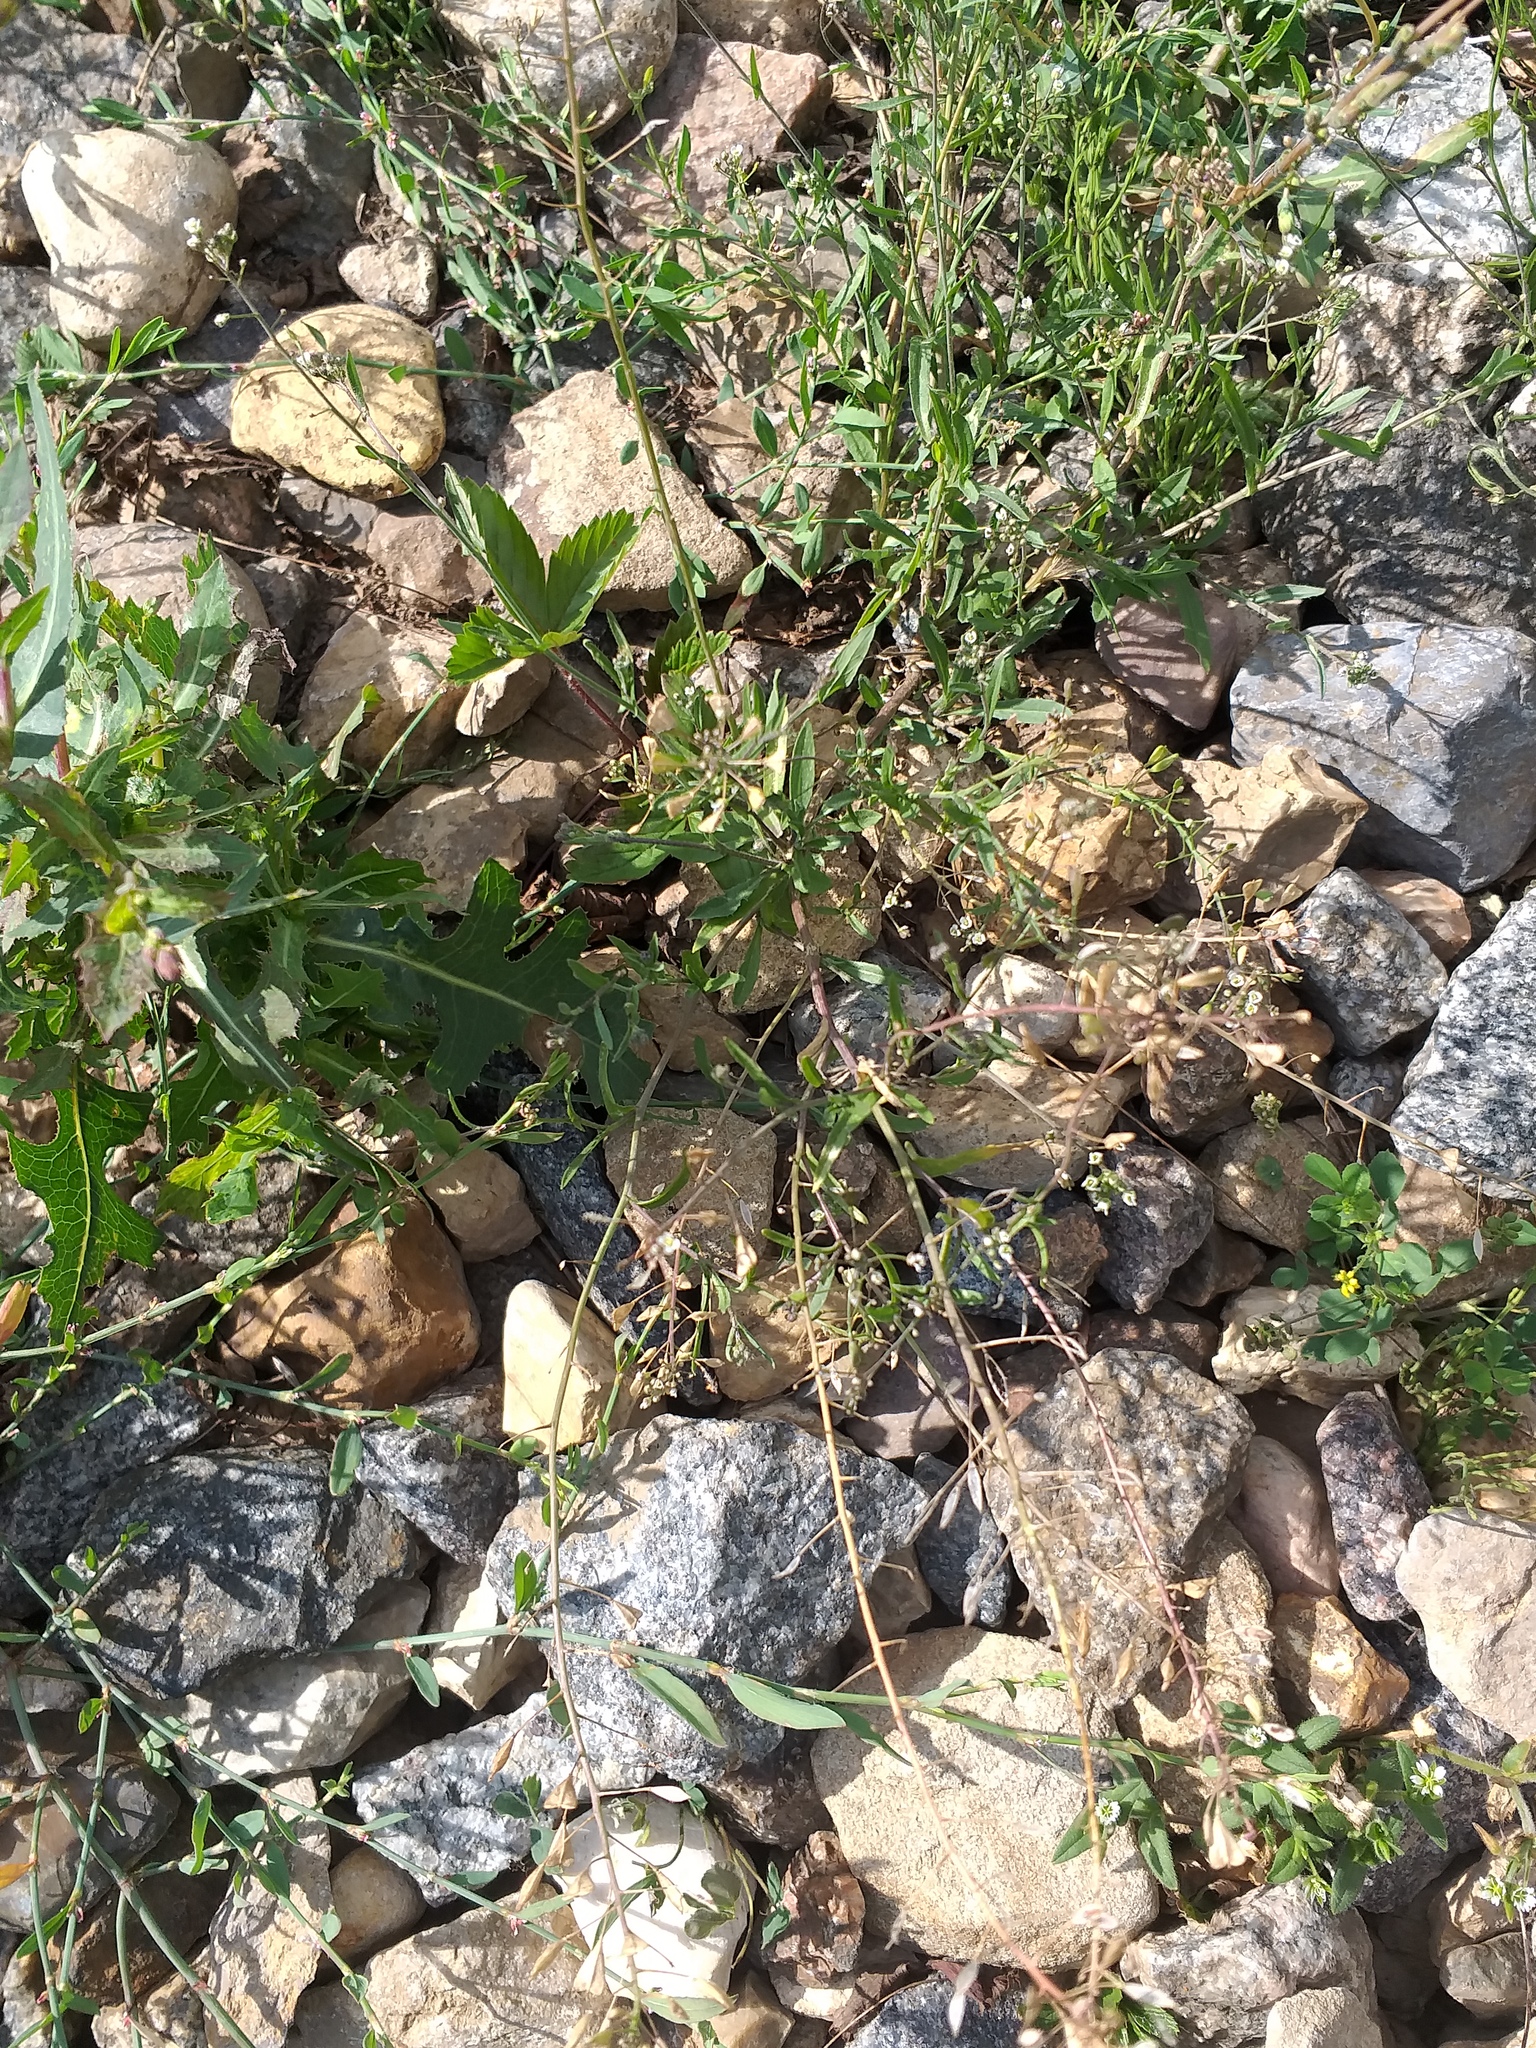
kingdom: Plantae
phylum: Tracheophyta
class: Magnoliopsida
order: Brassicales
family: Brassicaceae
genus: Capsella
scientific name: Capsella bursa-pastoris
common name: Shepherd's purse
